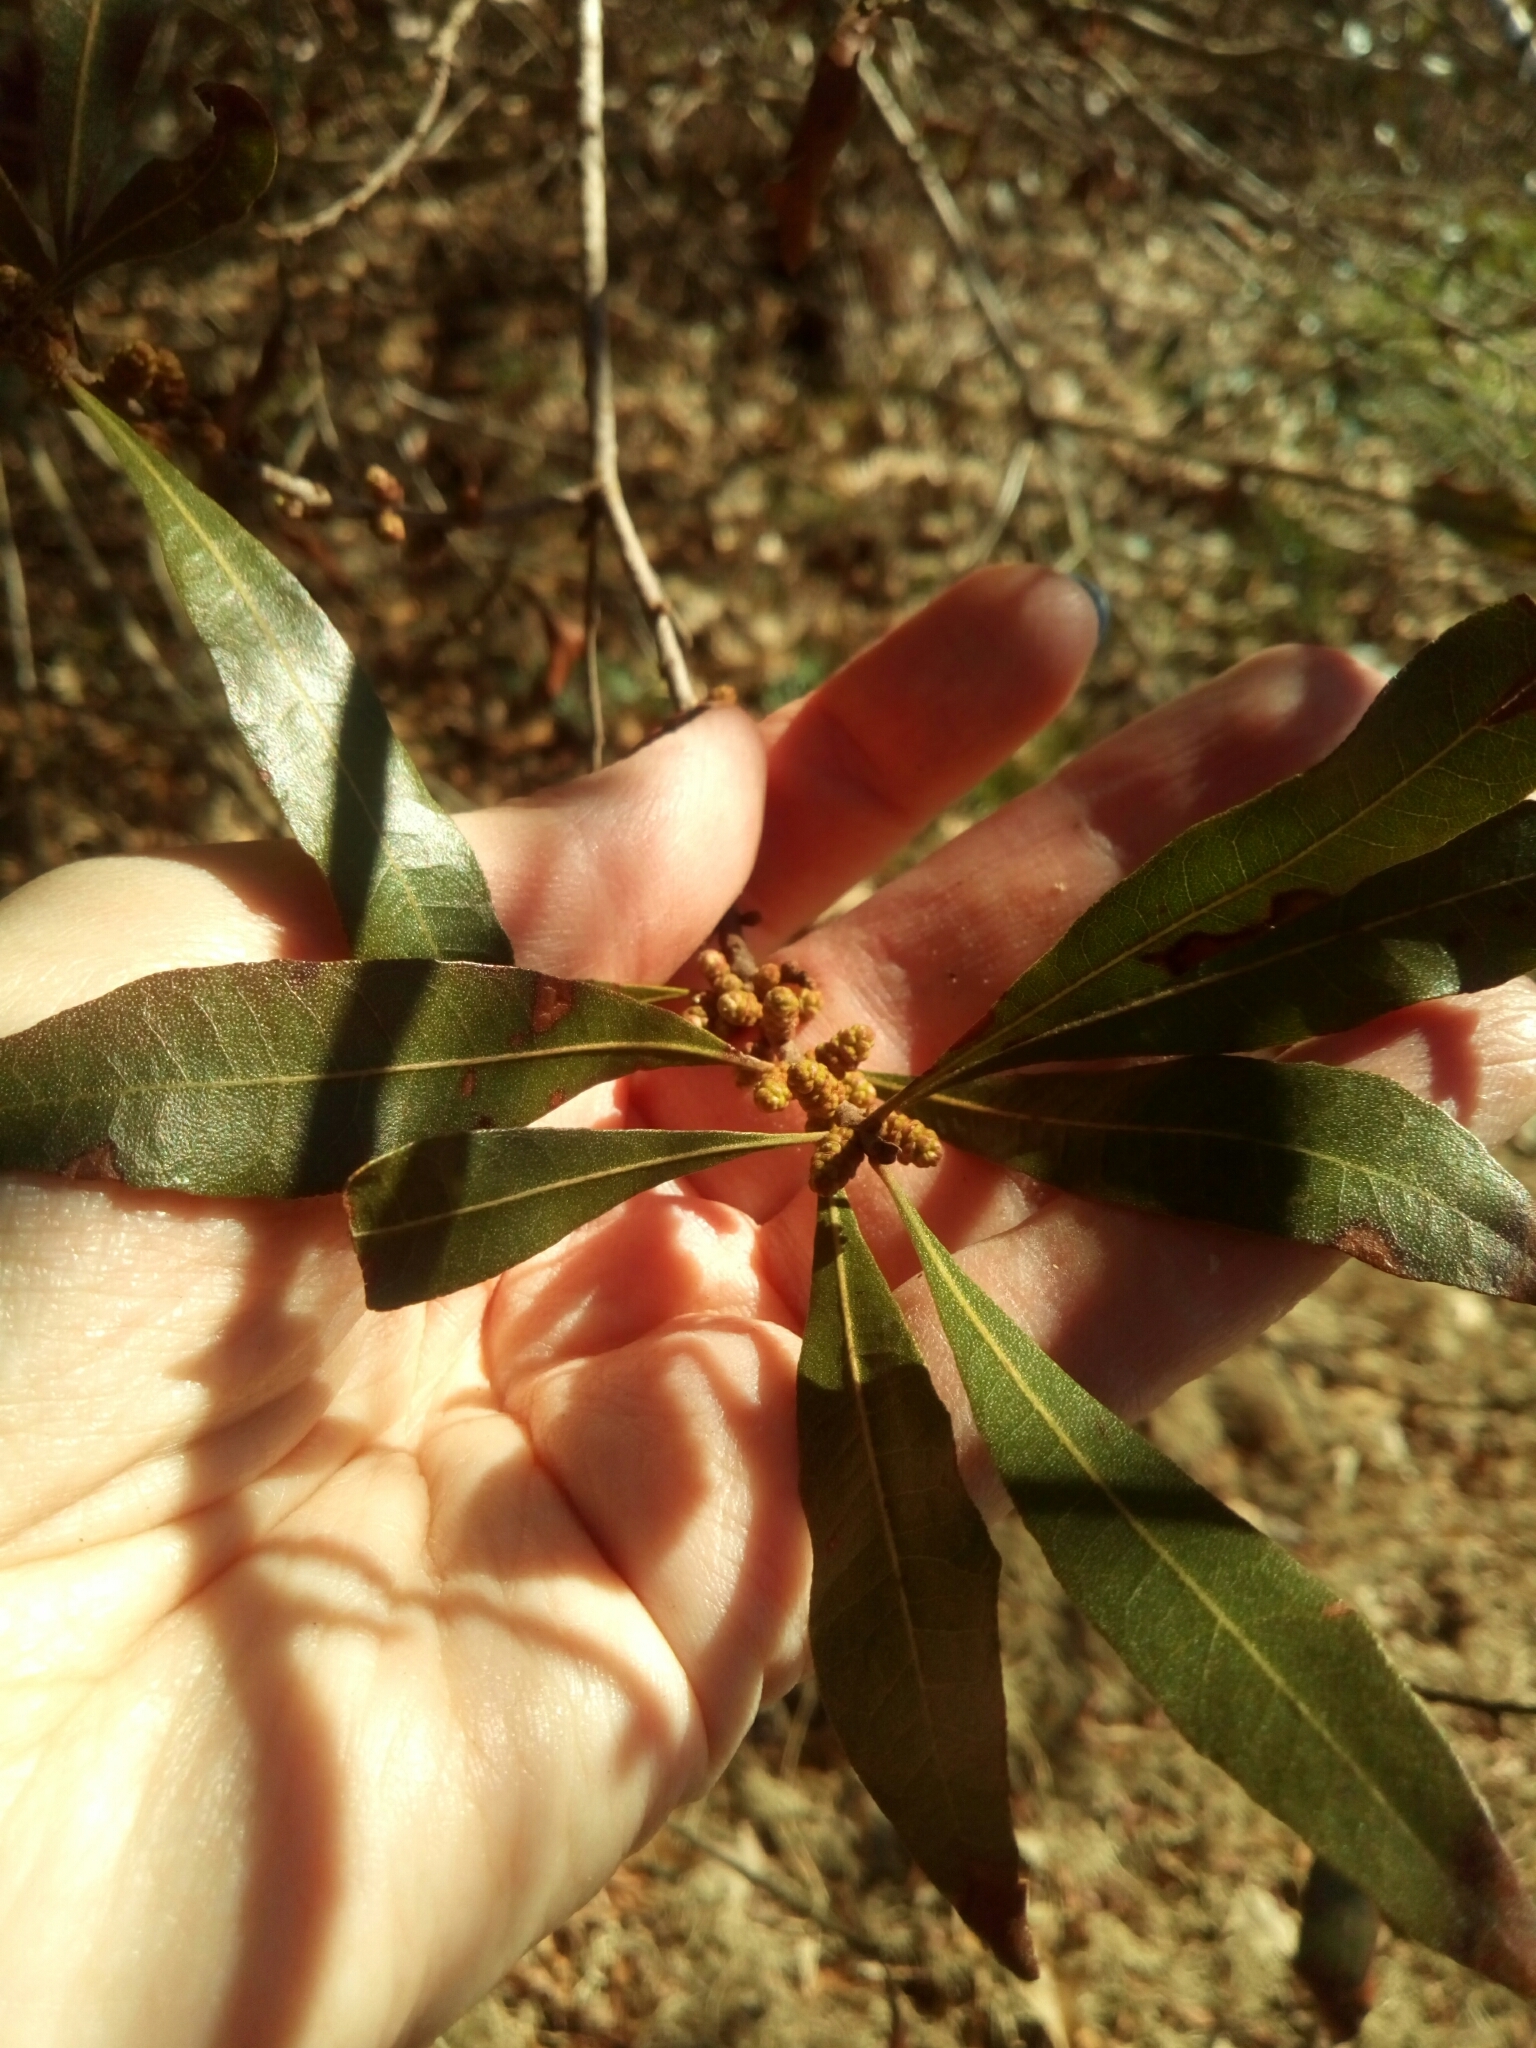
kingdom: Plantae
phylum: Tracheophyta
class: Magnoliopsida
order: Fagales
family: Myricaceae
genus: Morella
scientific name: Morella cerifera
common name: Wax myrtle
